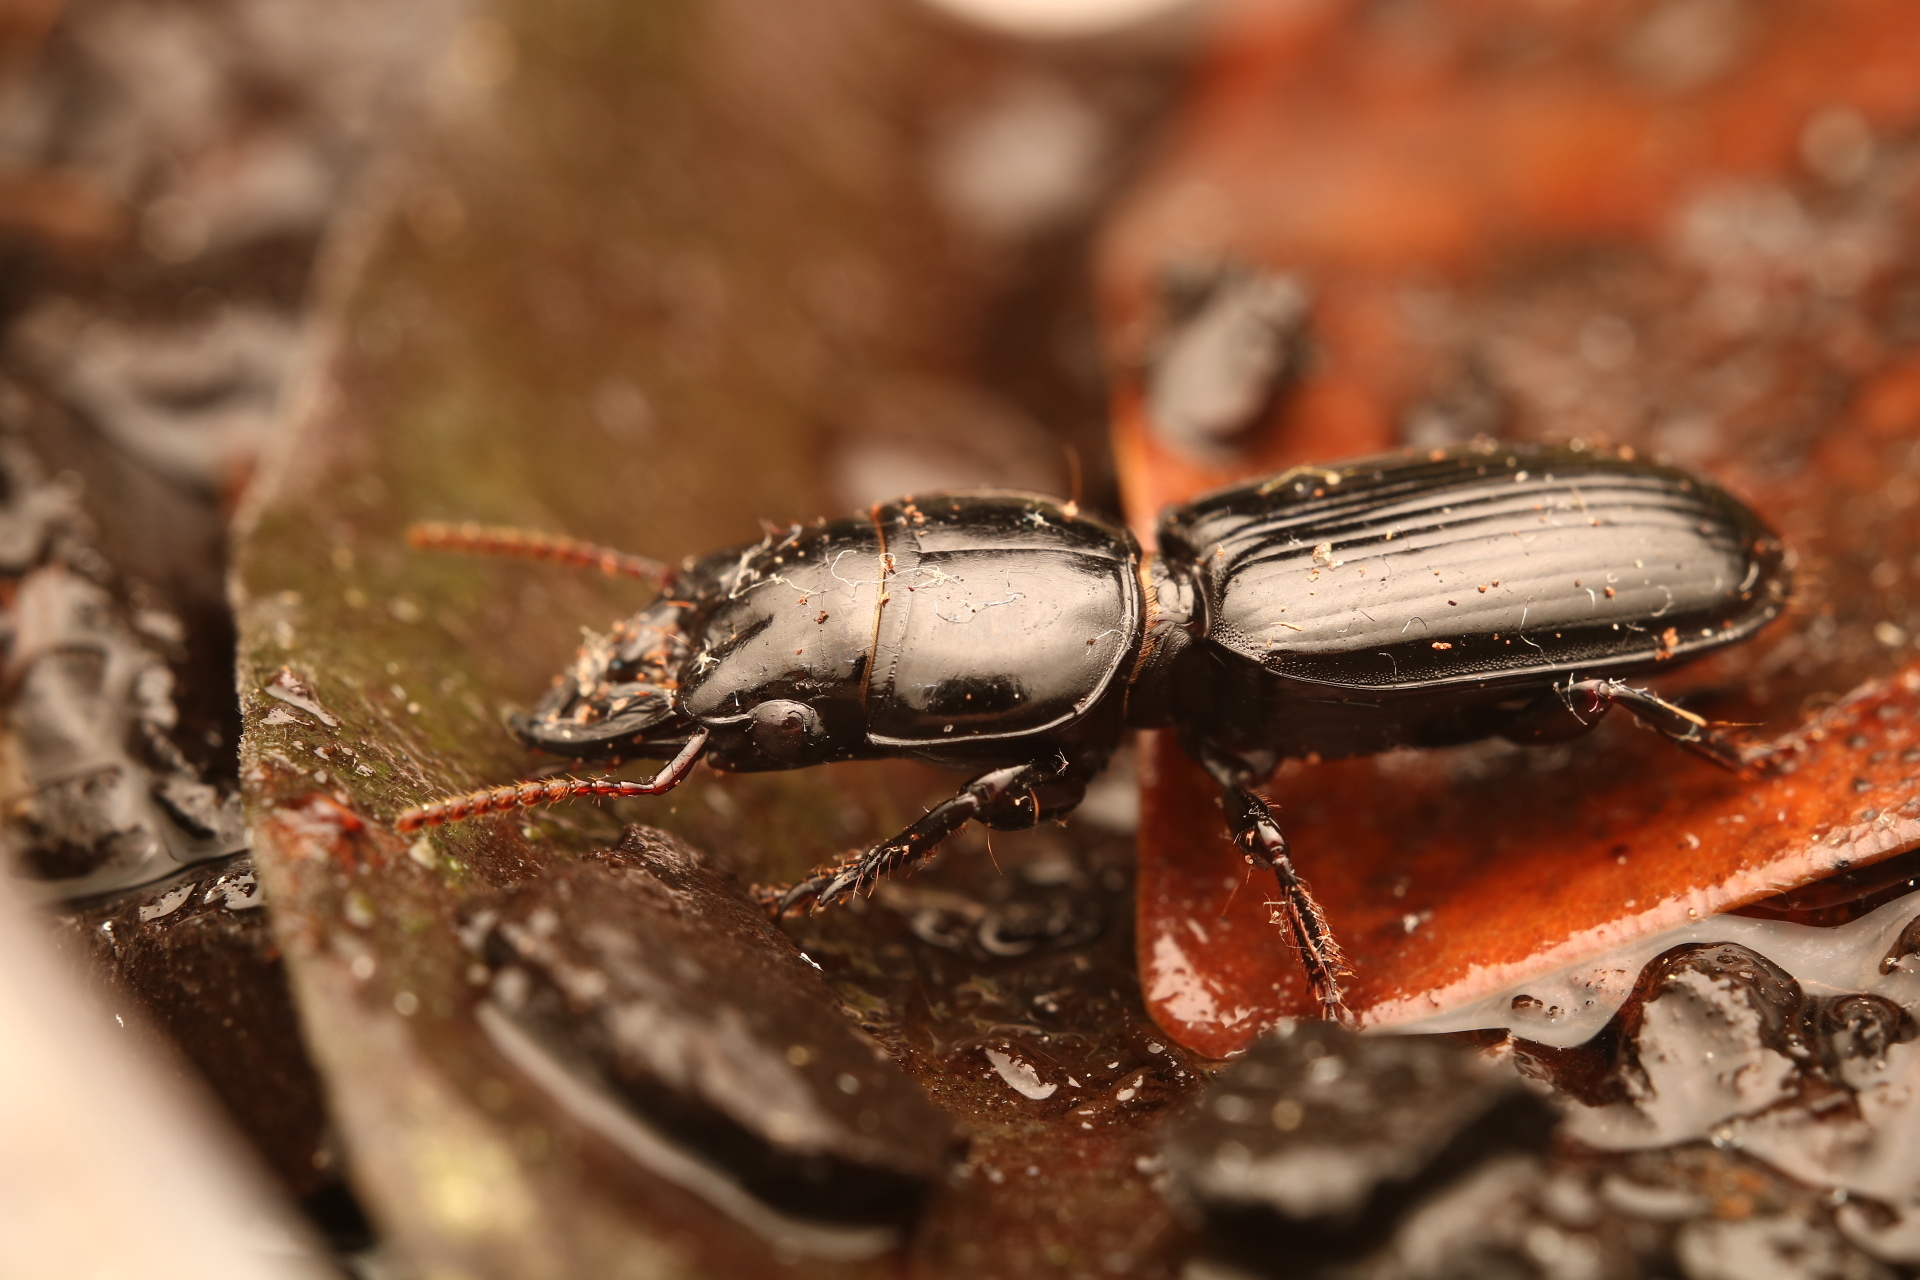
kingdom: Animalia
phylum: Arthropoda
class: Insecta
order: Coleoptera
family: Carabidae
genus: Scarites
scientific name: Scarites subterraneus
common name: Big-headed ground beetle
